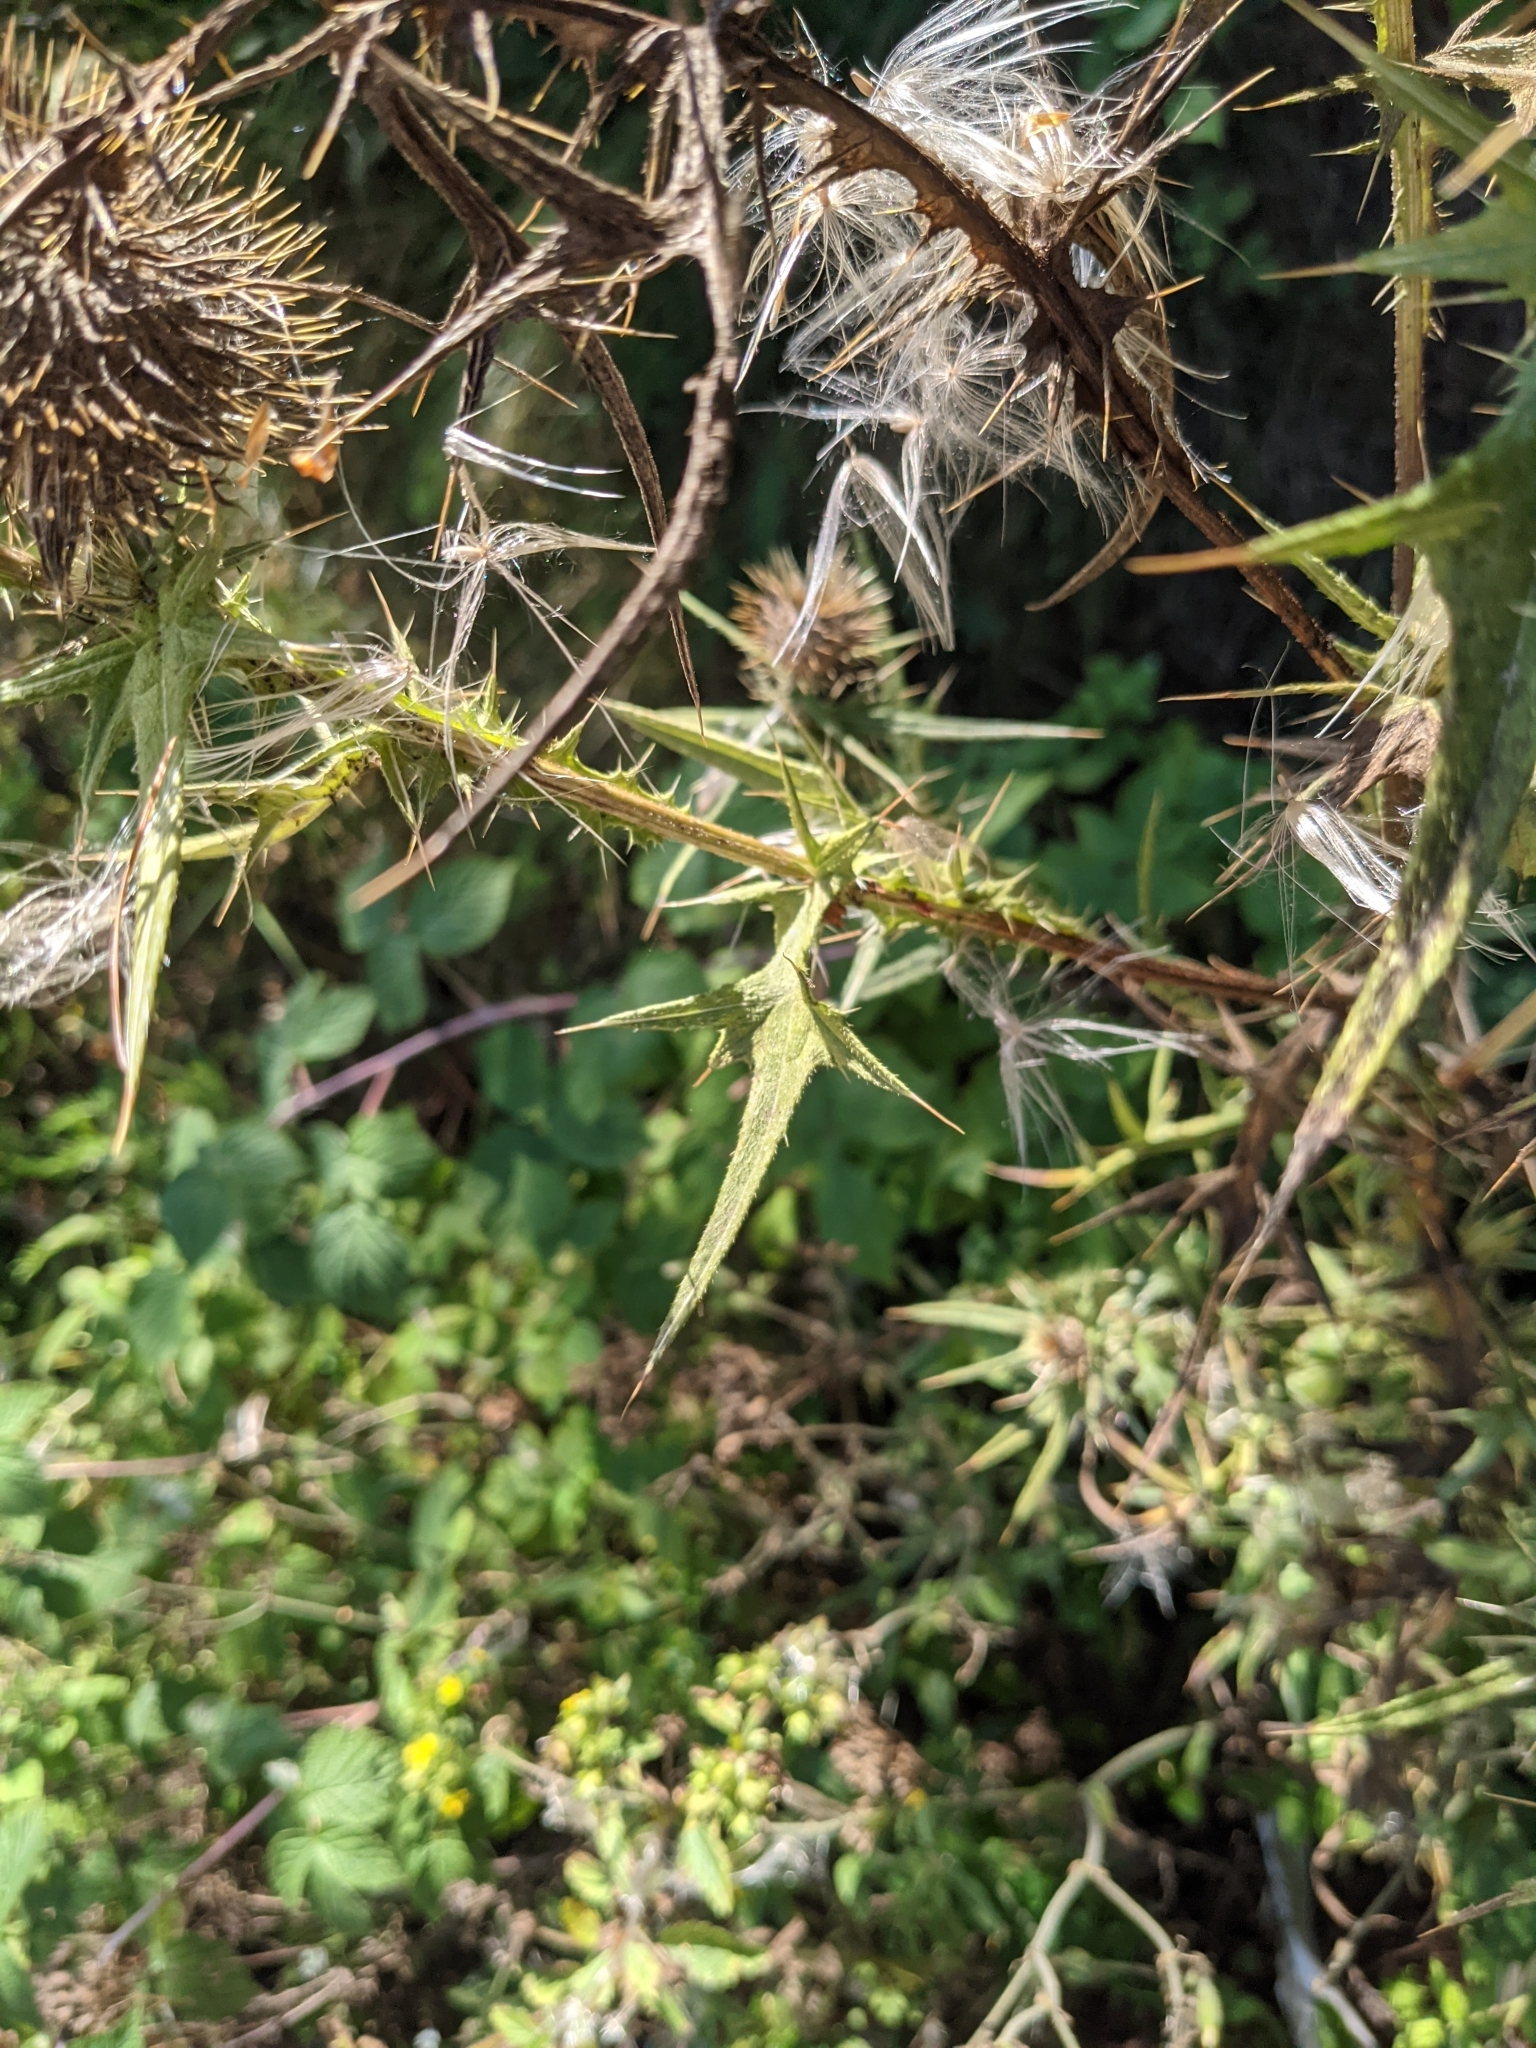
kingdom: Plantae
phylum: Tracheophyta
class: Magnoliopsida
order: Asterales
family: Asteraceae
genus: Cirsium
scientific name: Cirsium vulgare
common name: Bull thistle
